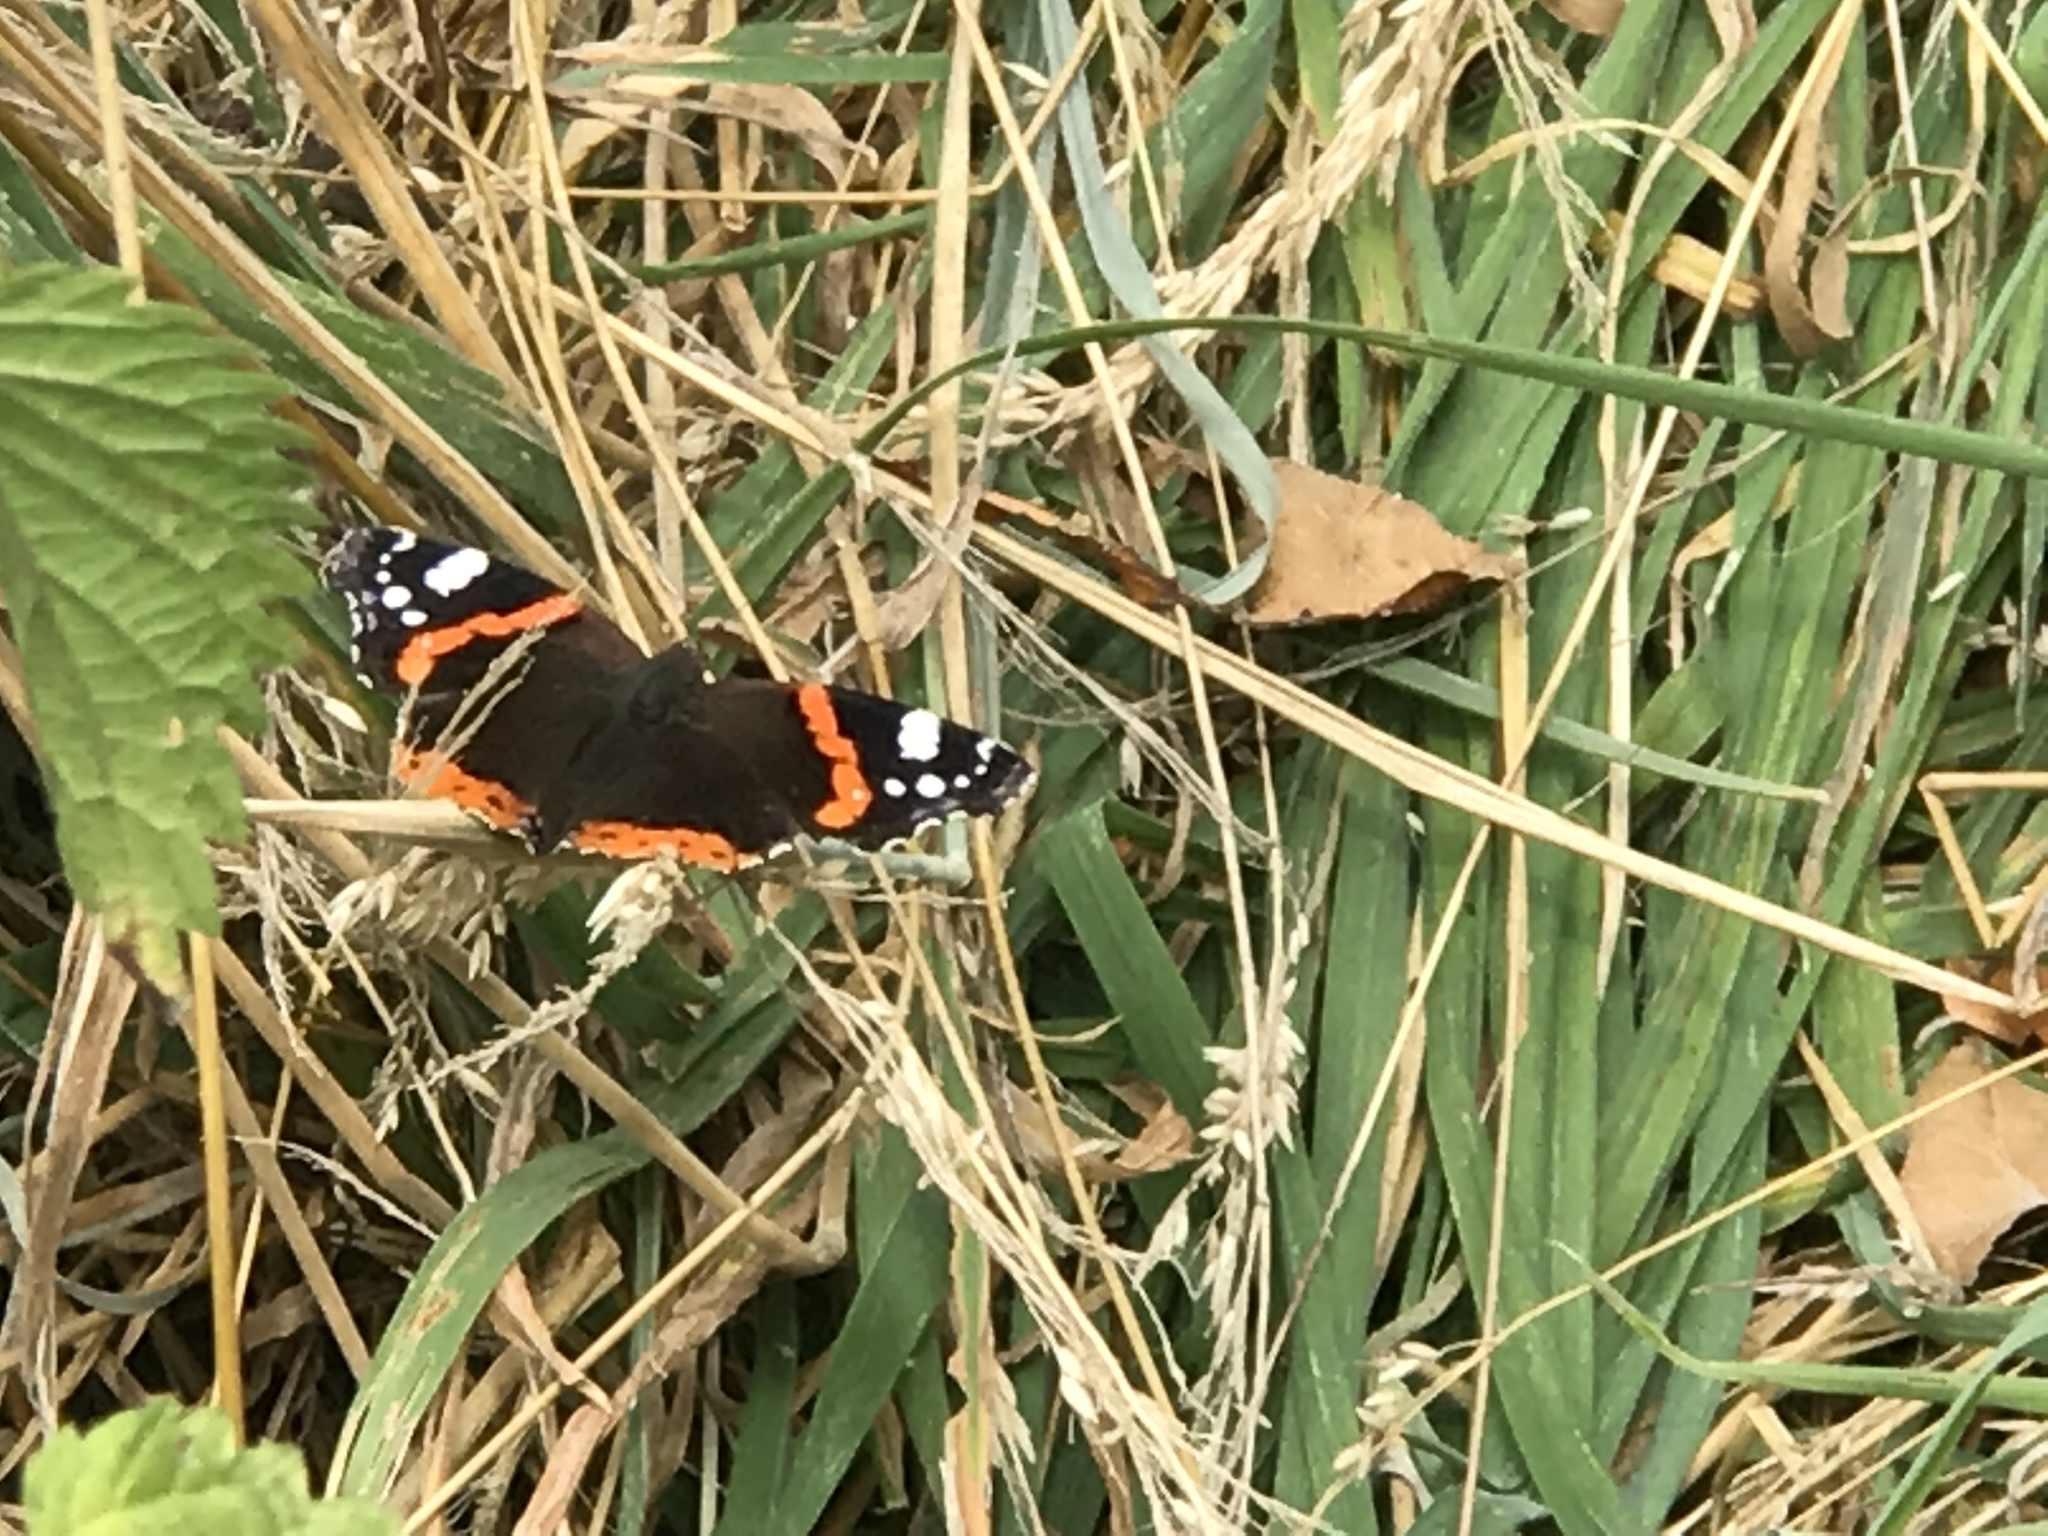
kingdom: Animalia
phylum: Arthropoda
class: Insecta
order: Lepidoptera
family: Nymphalidae
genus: Vanessa
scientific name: Vanessa atalanta
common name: Red admiral
